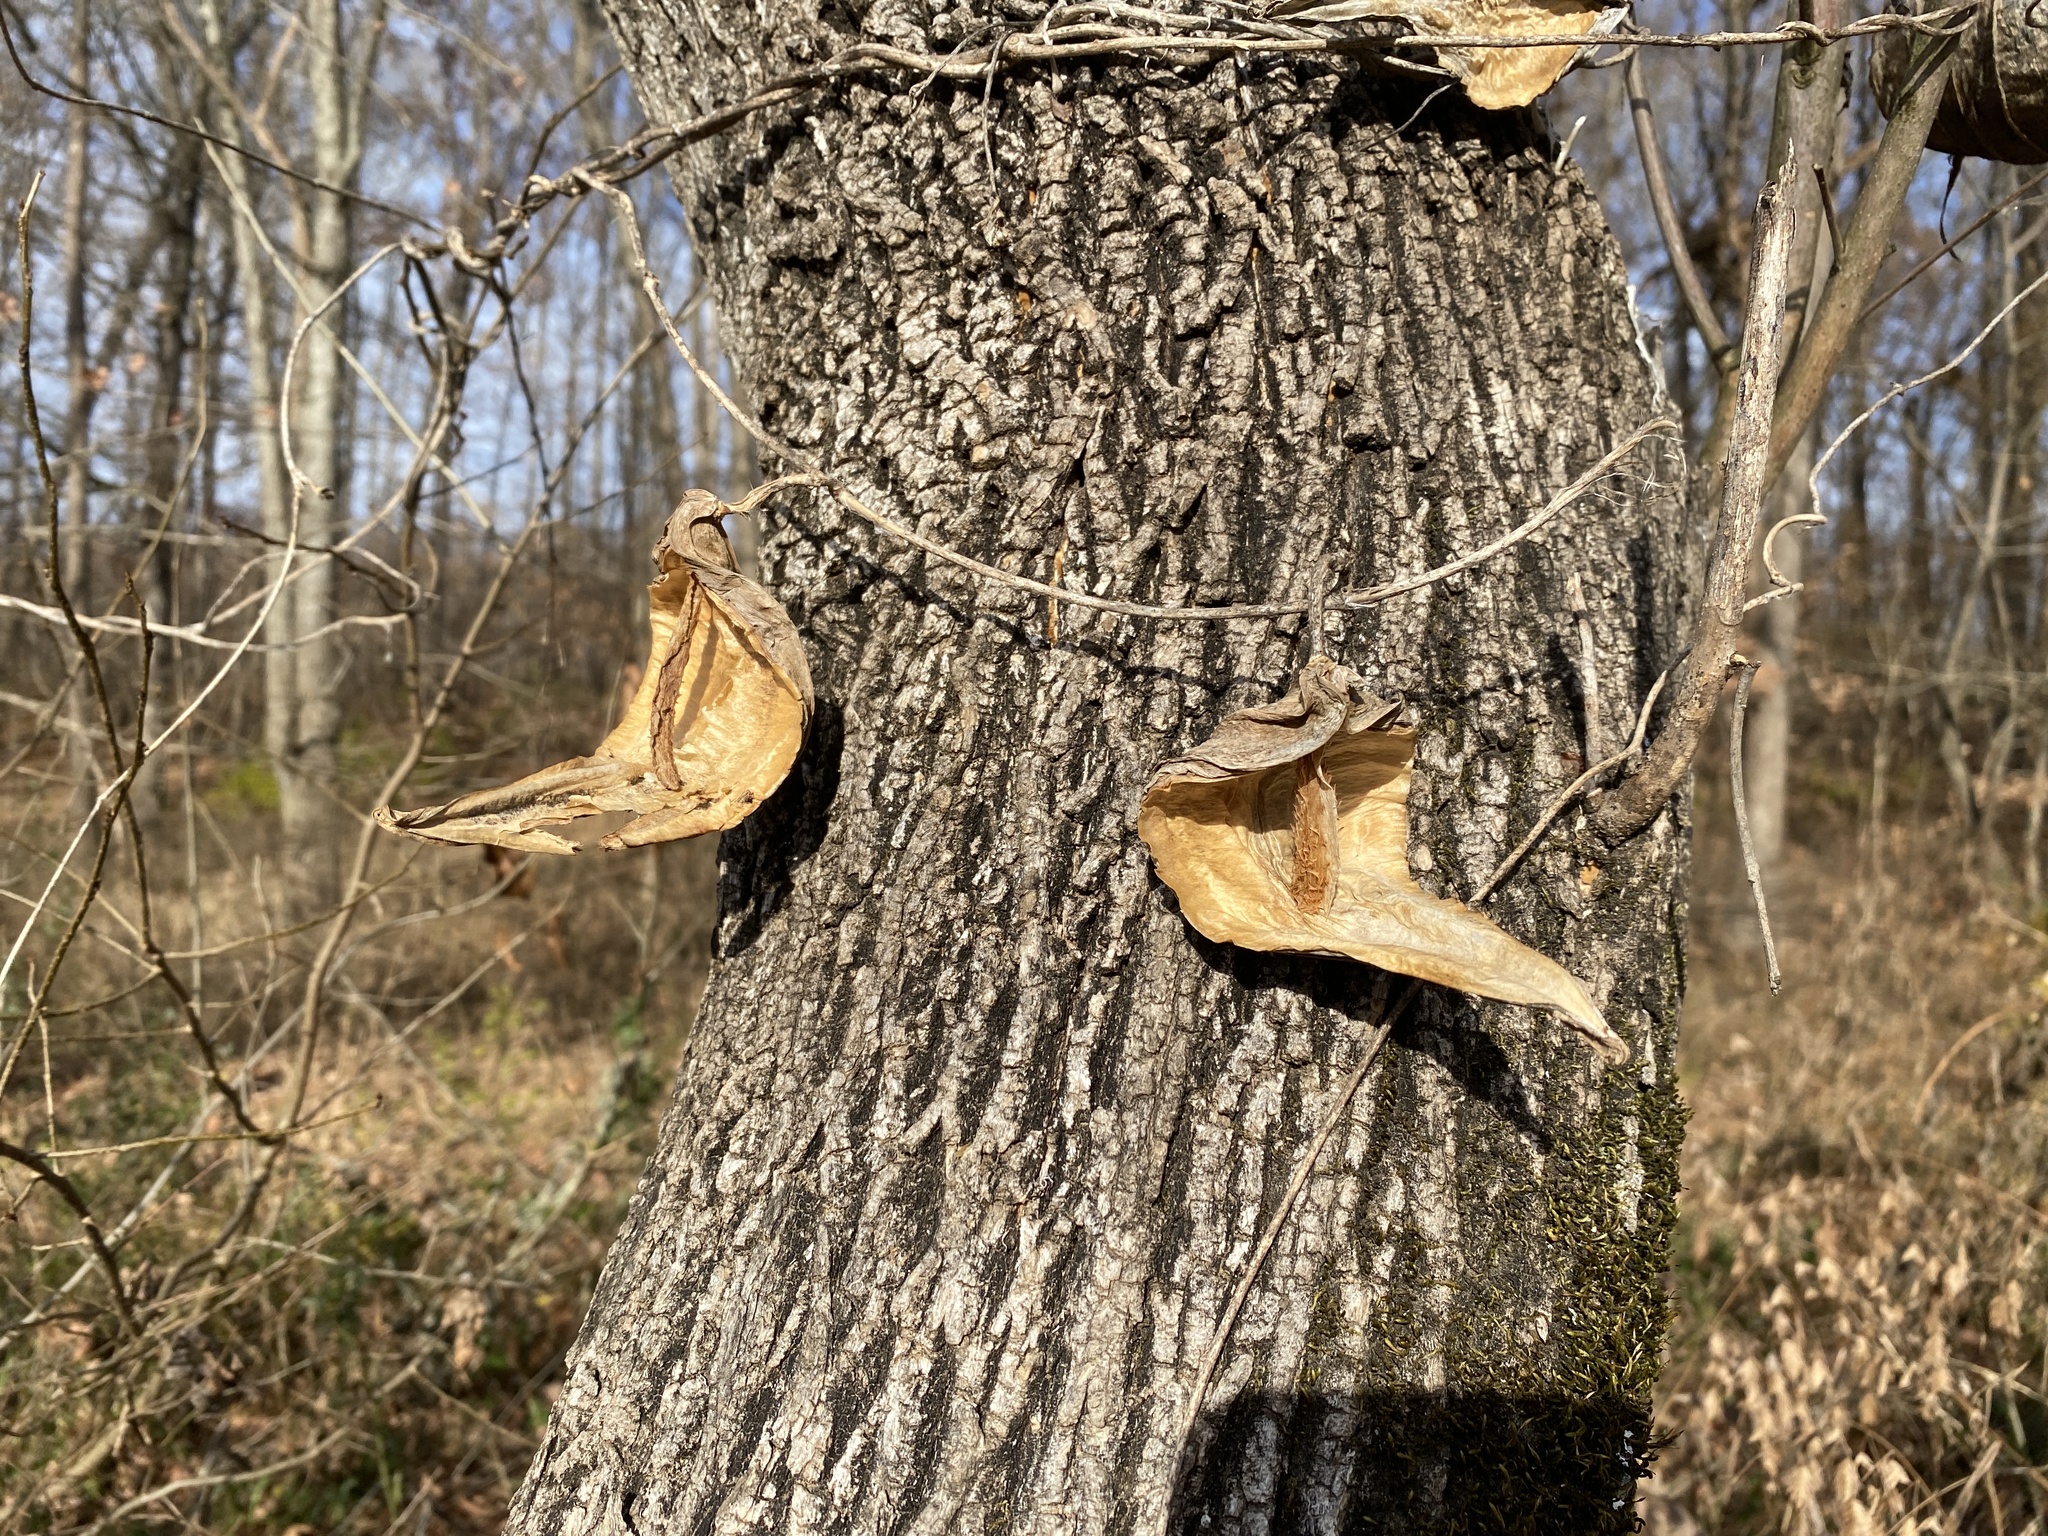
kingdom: Plantae
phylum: Tracheophyta
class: Magnoliopsida
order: Gentianales
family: Apocynaceae
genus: Gonolobus
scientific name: Gonolobus suberosus
